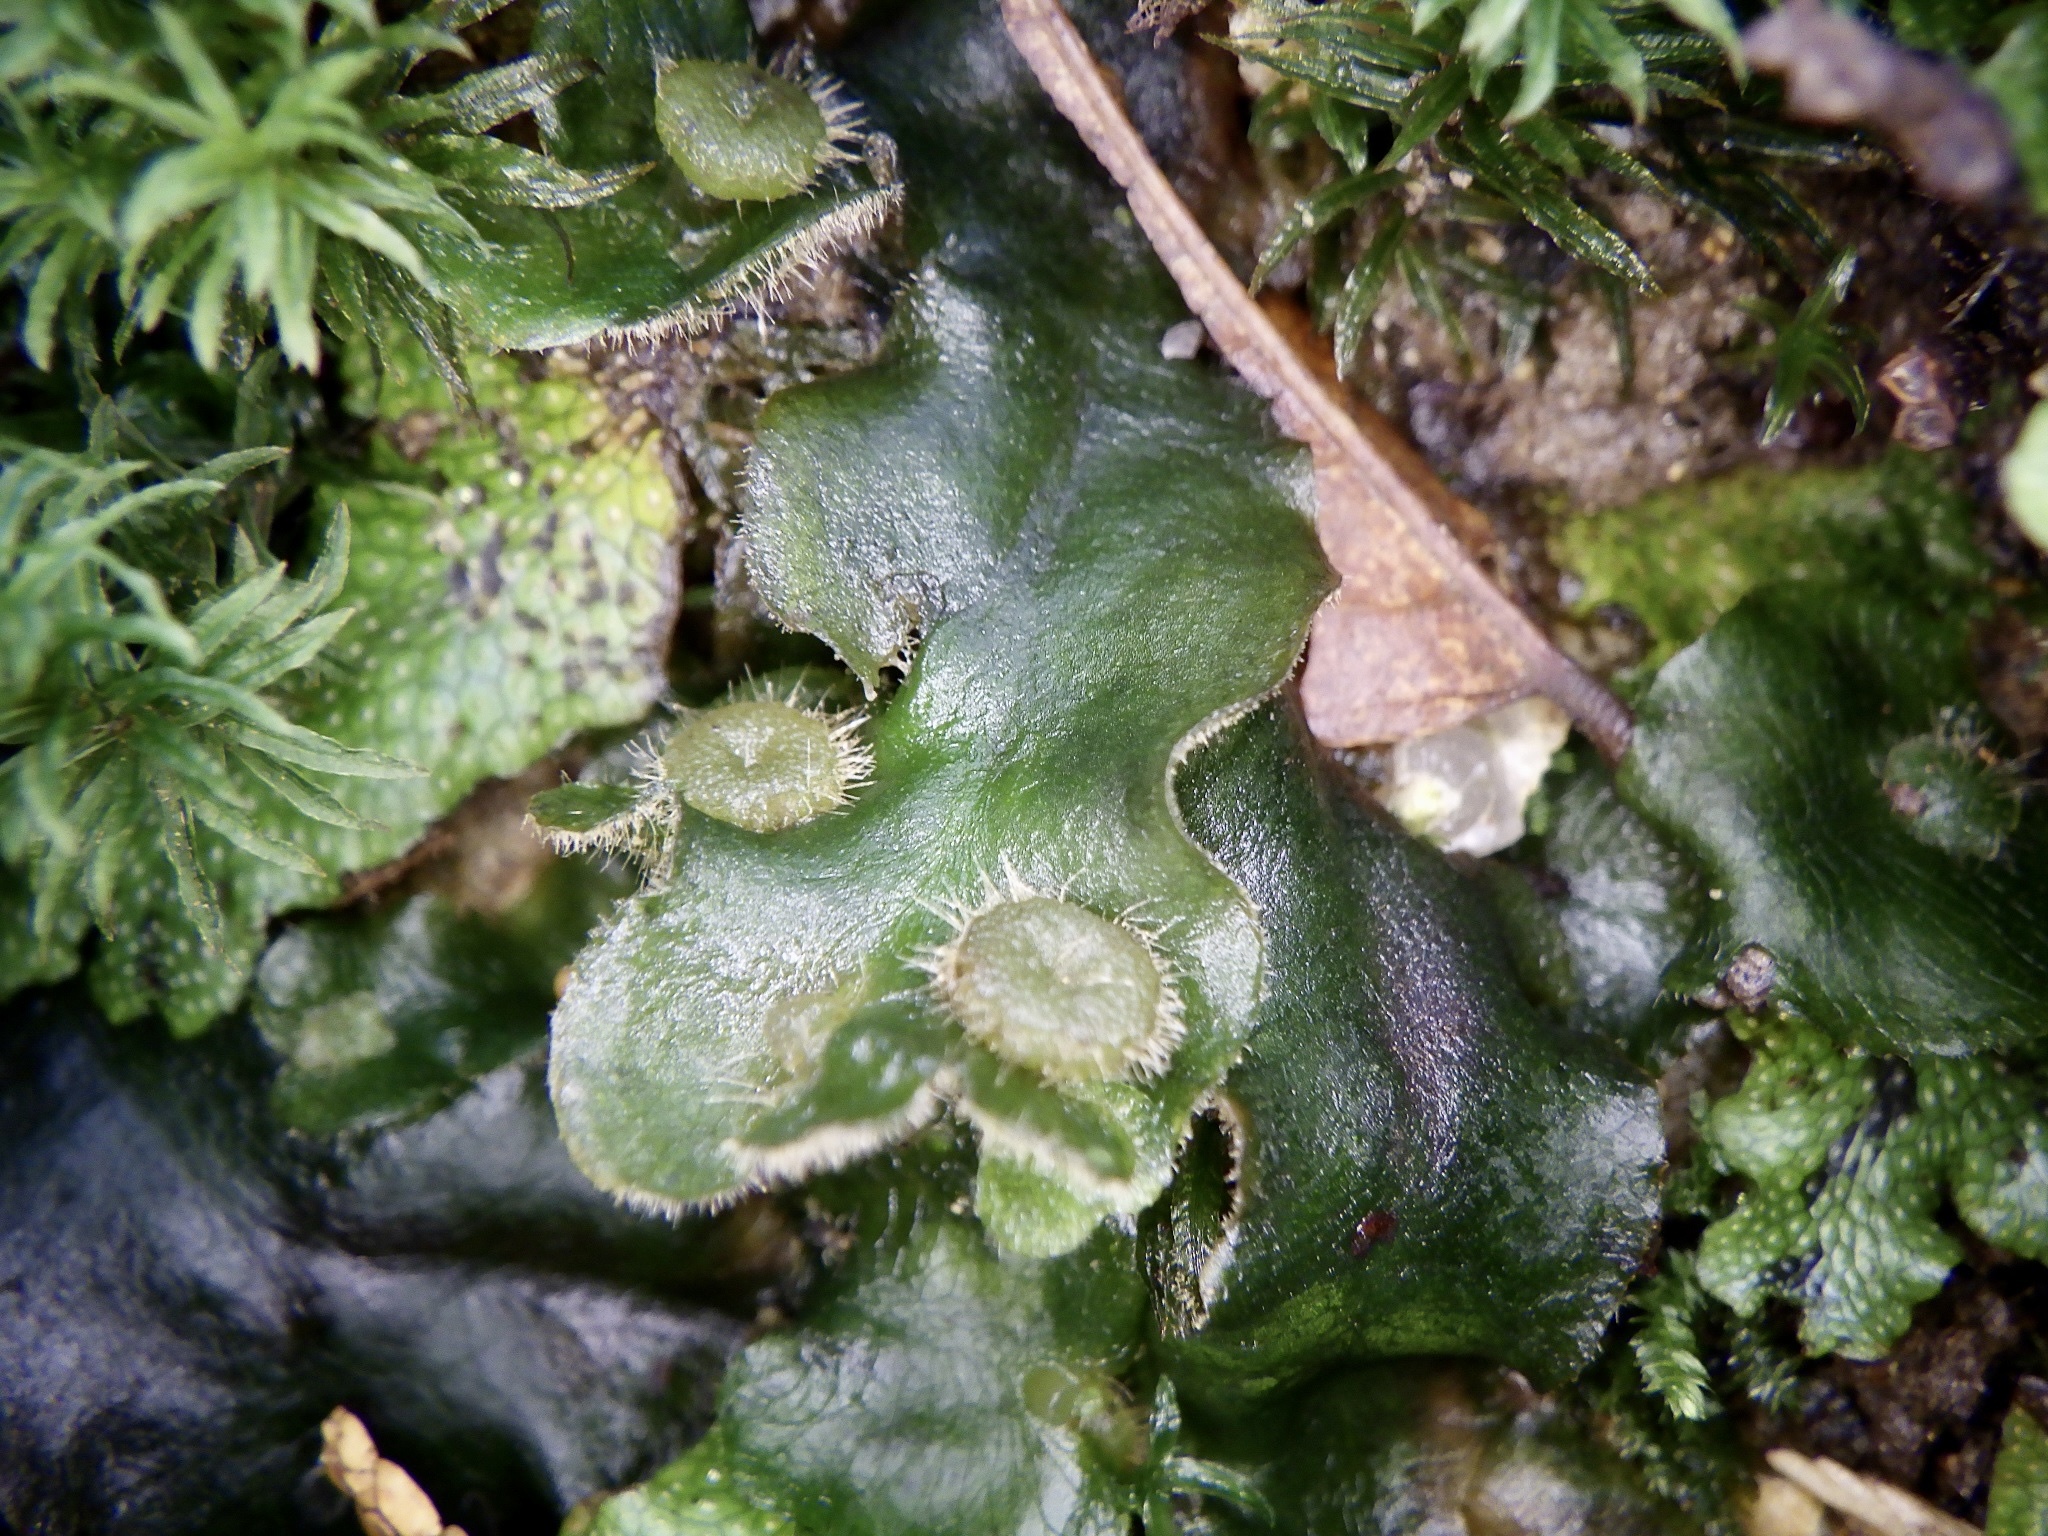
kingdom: Plantae
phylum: Marchantiophyta
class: Marchantiopsida
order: Marchantiales
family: Dumortieraceae
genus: Dumortiera
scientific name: Dumortiera hirsuta
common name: Dumortier's liverwort
